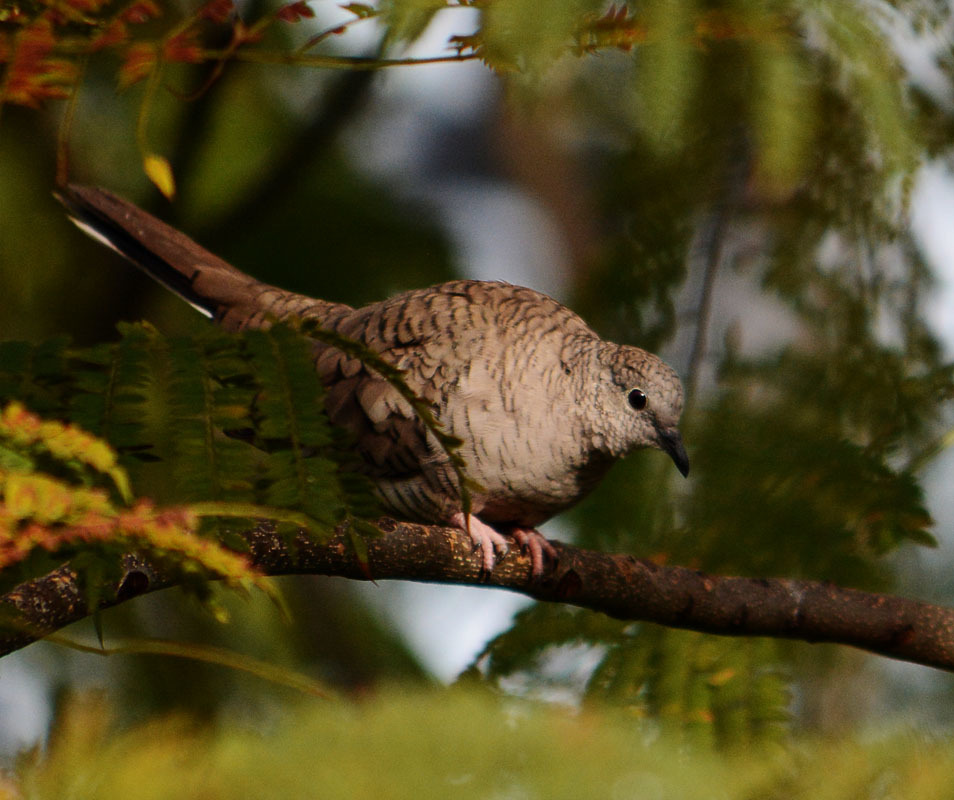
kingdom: Animalia
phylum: Chordata
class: Aves
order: Columbiformes
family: Columbidae
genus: Columbina
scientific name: Columbina inca
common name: Inca dove
